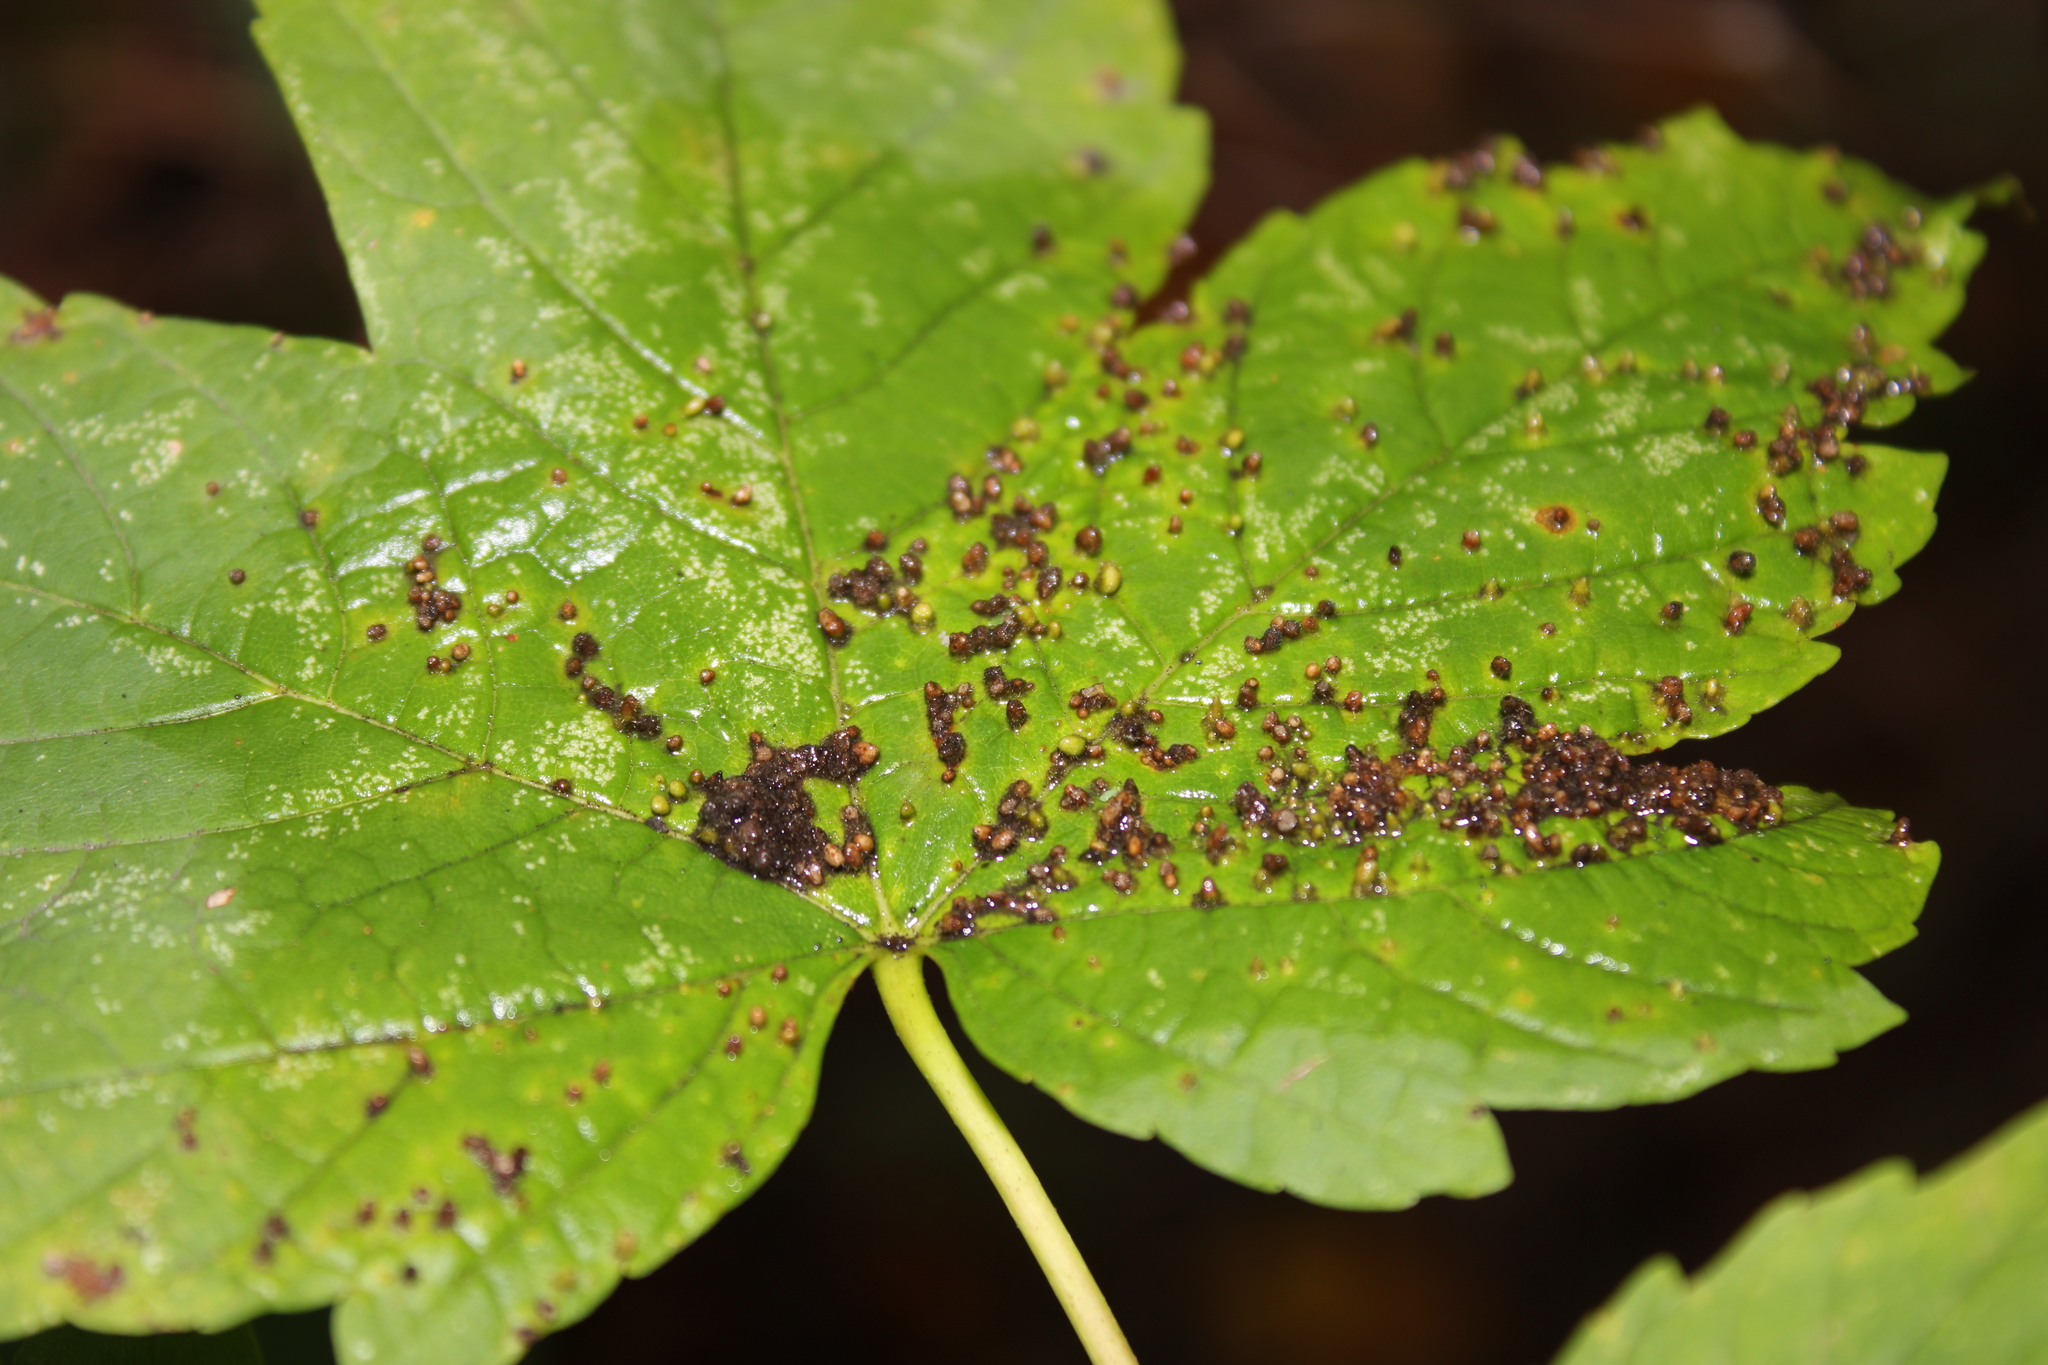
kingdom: Animalia
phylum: Arthropoda
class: Arachnida
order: Trombidiformes
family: Eriophyidae
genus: Aceria
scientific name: Aceria cephaloneus
